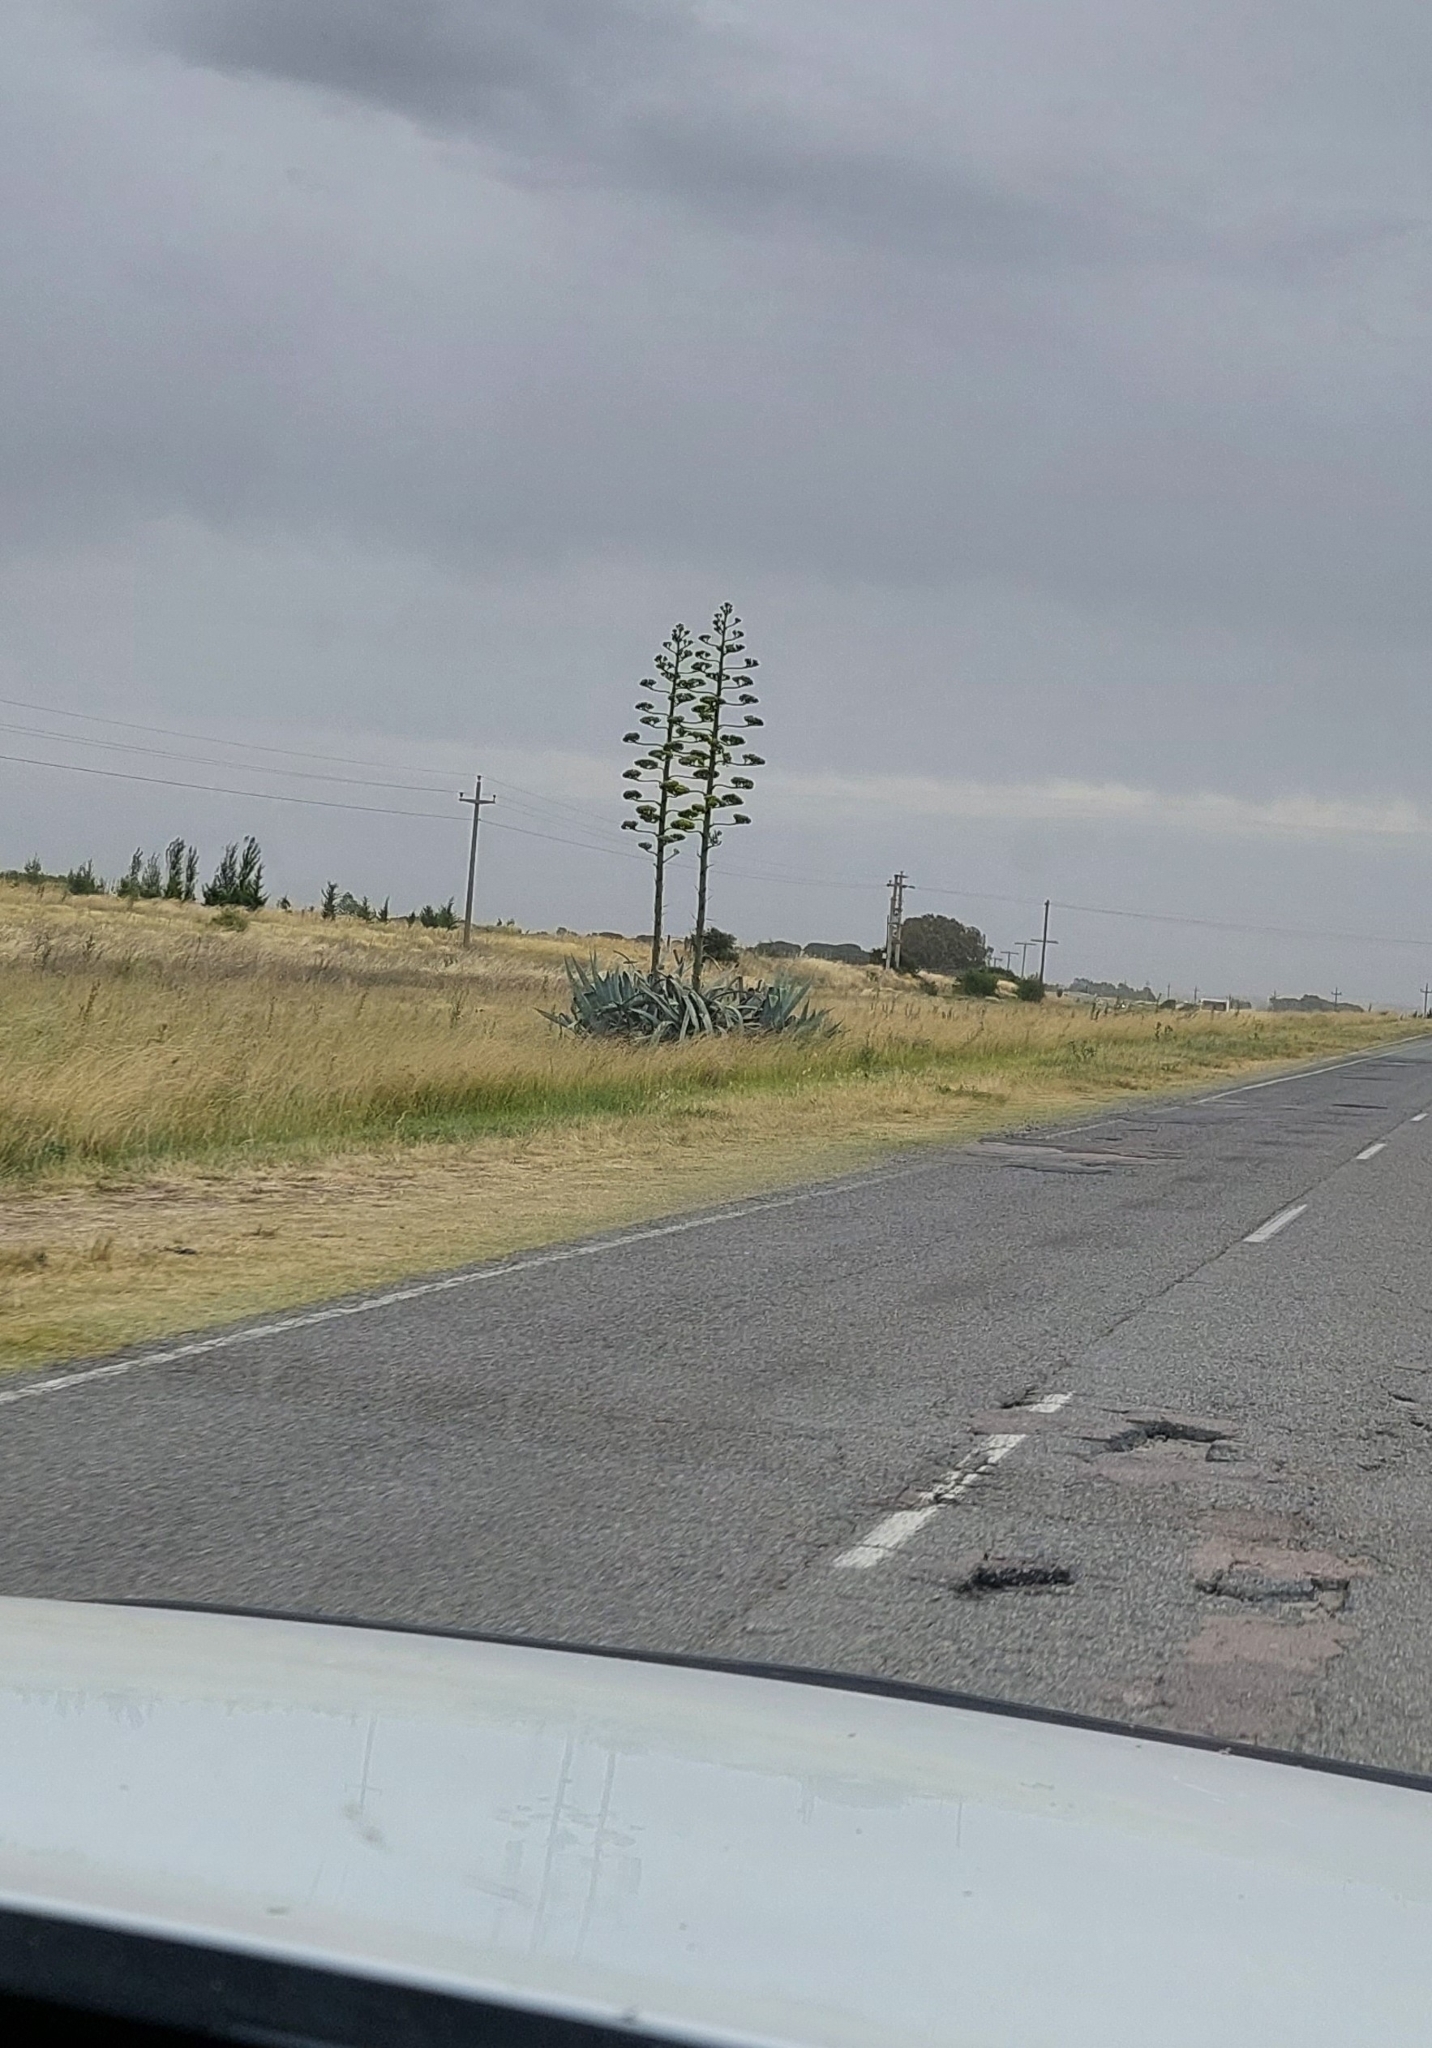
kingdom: Plantae
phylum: Tracheophyta
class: Liliopsida
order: Asparagales
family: Asparagaceae
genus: Agave
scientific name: Agave americana
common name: Centuryplant
